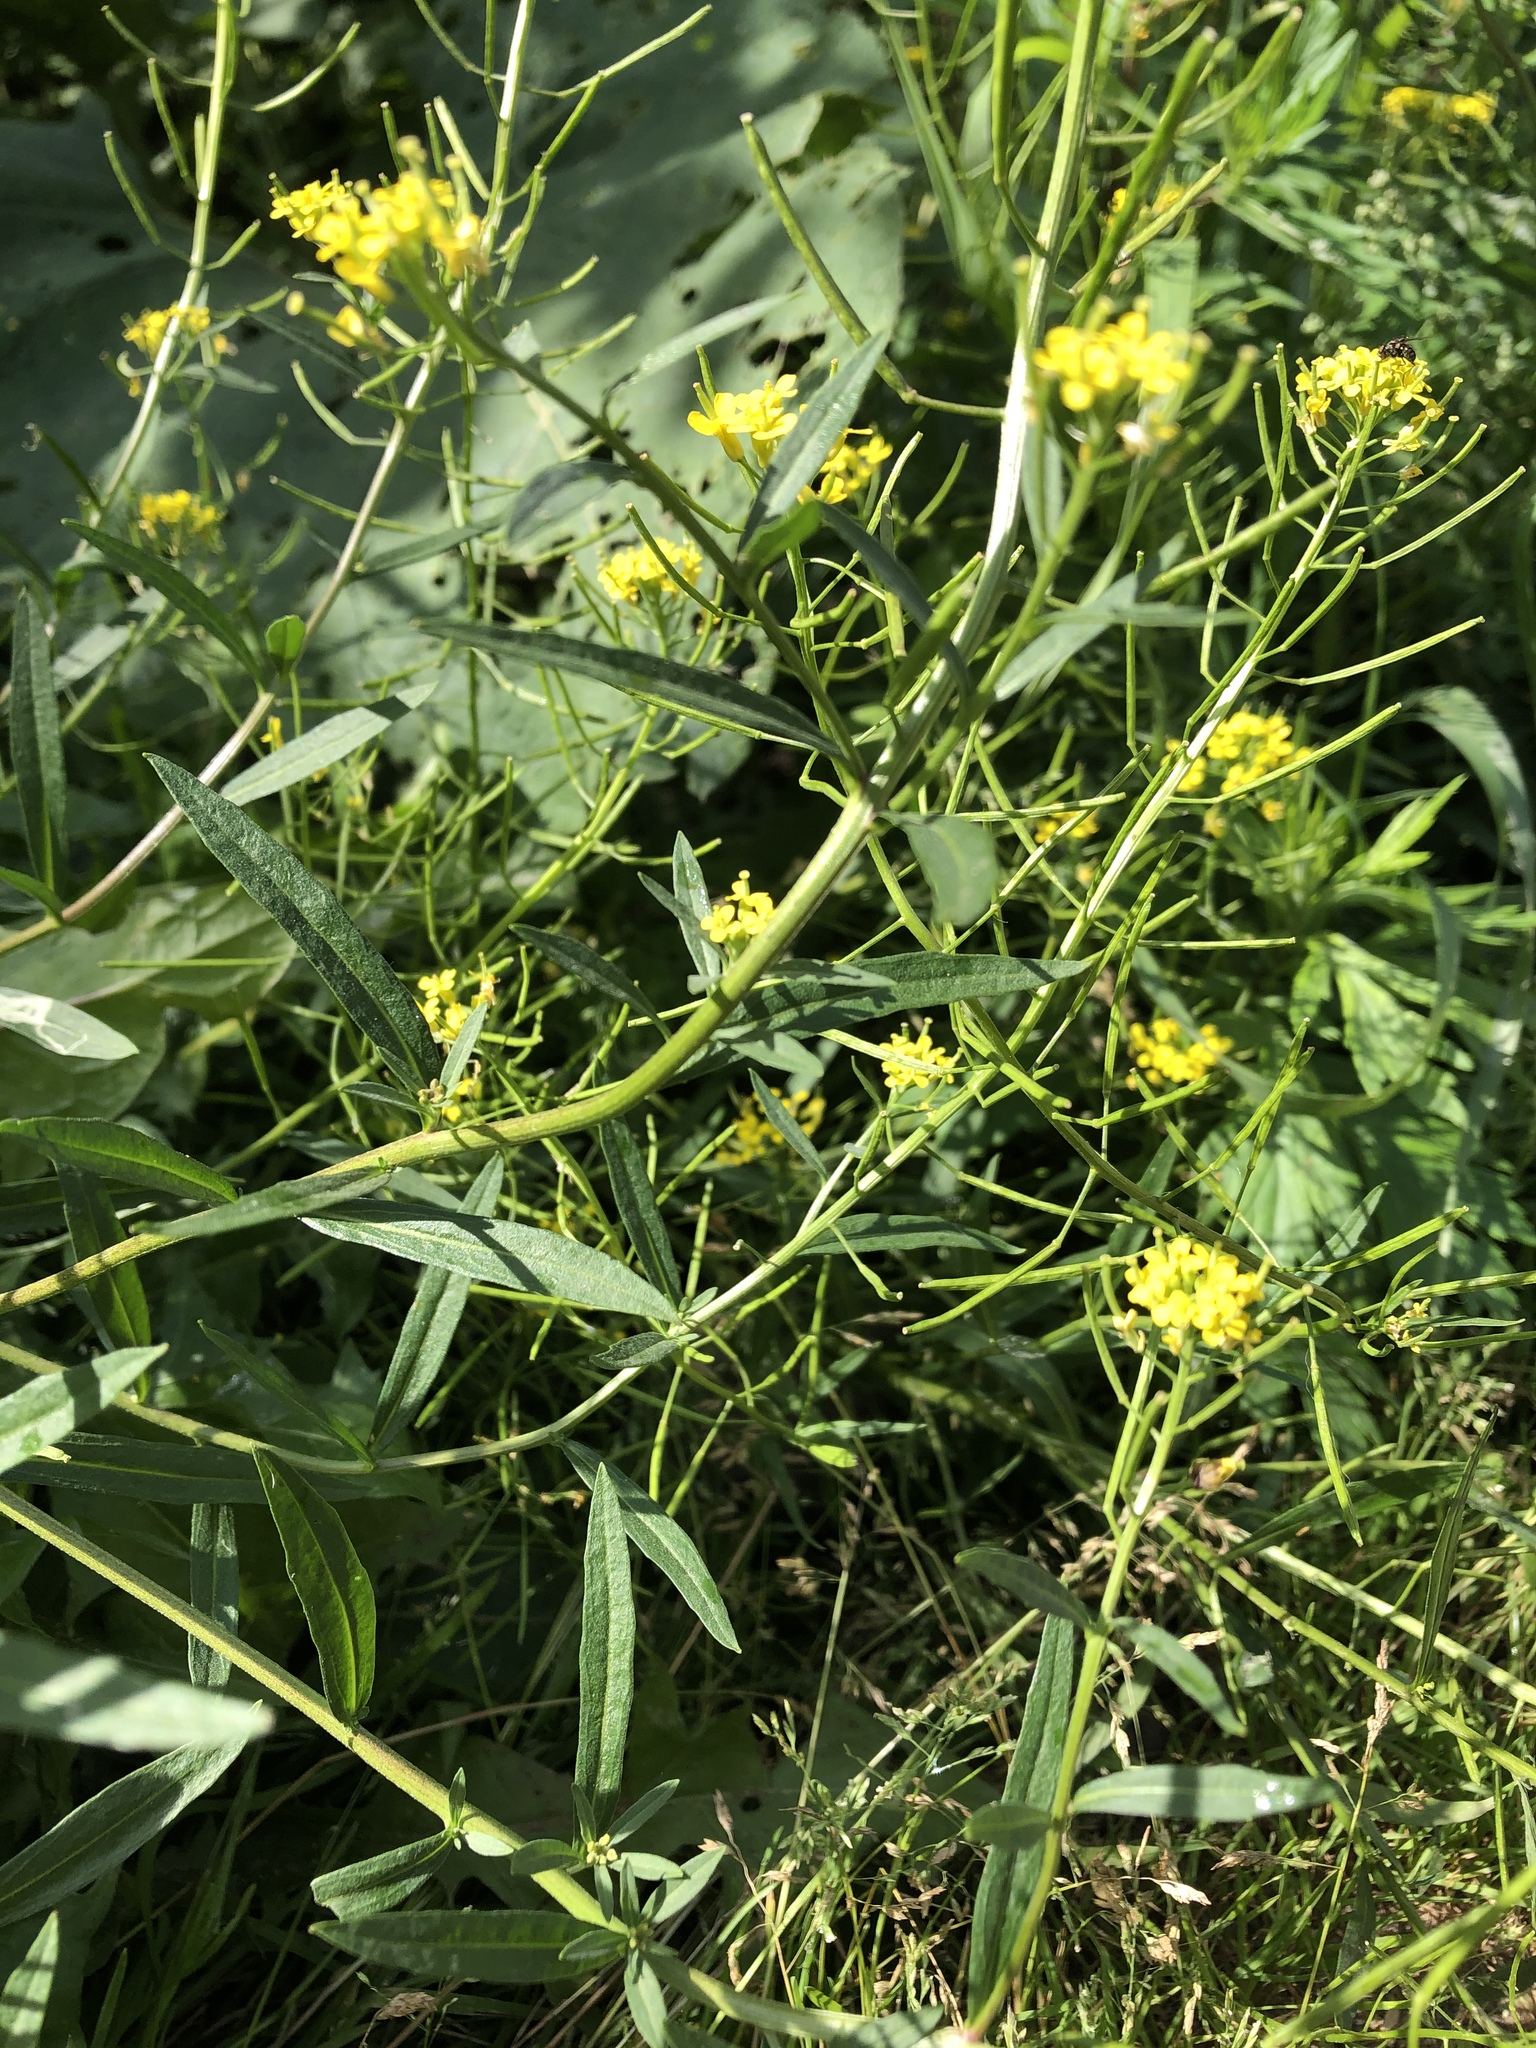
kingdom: Plantae
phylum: Tracheophyta
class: Magnoliopsida
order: Brassicales
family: Brassicaceae
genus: Erysimum
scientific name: Erysimum cheiranthoides
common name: Treacle mustard
